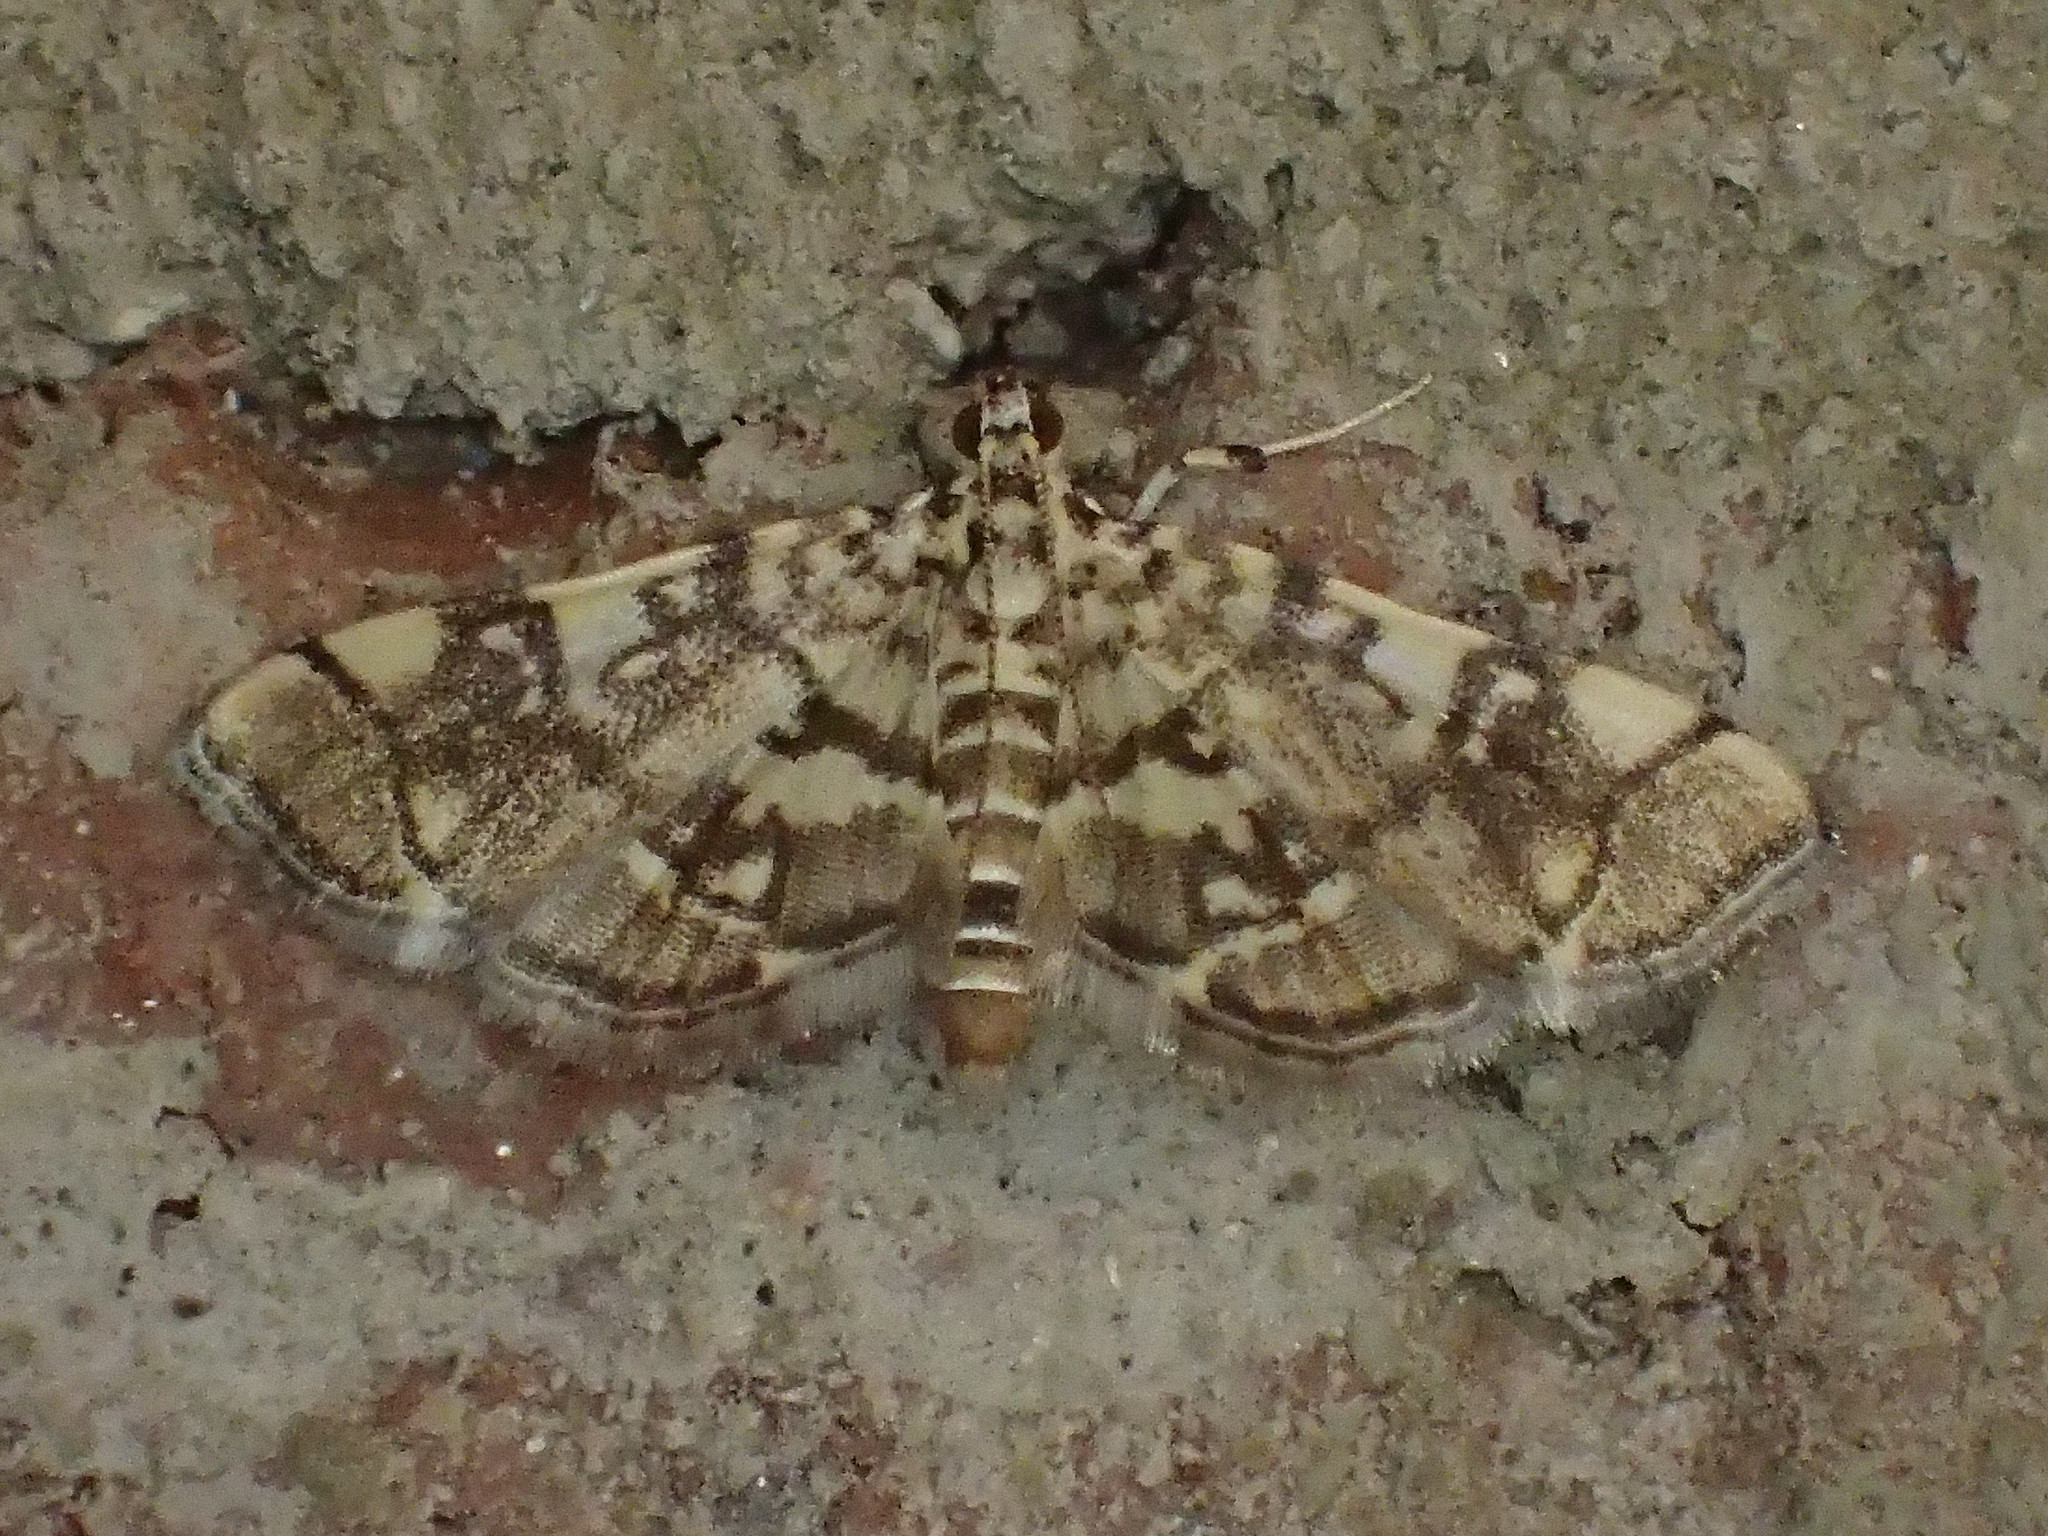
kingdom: Animalia
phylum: Arthropoda
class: Insecta
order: Lepidoptera
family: Crambidae
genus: Apogeshna
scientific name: Apogeshna stenialis
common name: Checkered apogeshna moth
